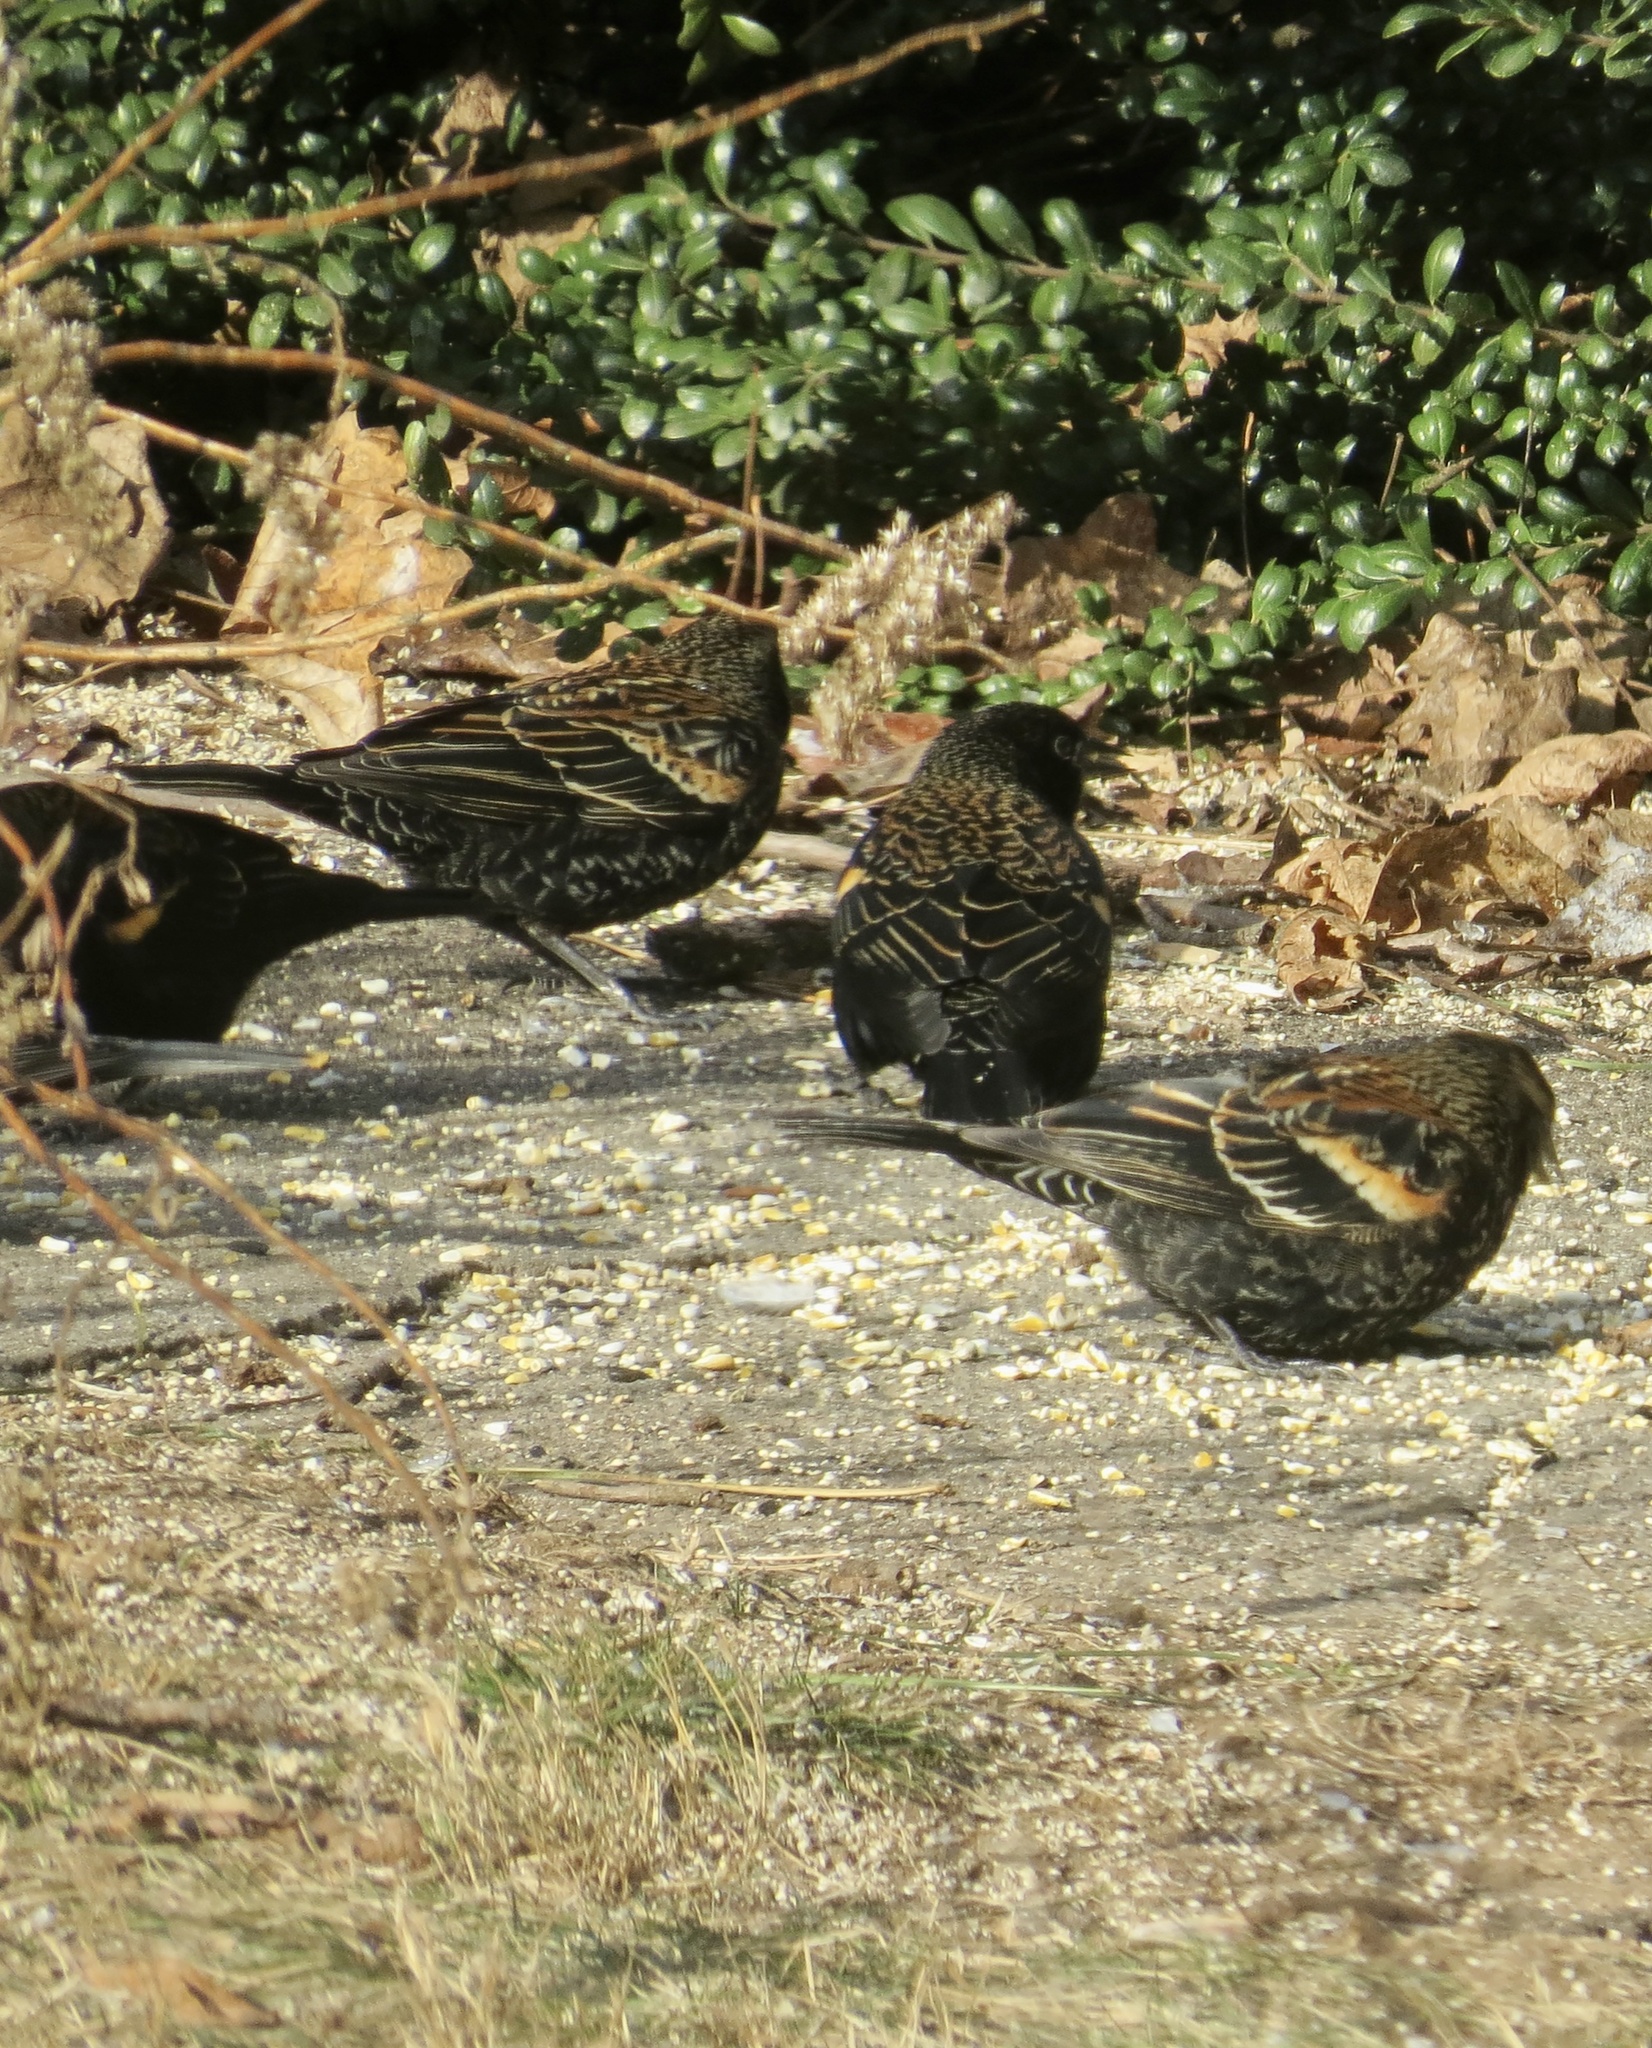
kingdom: Animalia
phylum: Chordata
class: Aves
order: Passeriformes
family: Icteridae
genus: Agelaius
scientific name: Agelaius phoeniceus
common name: Red-winged blackbird
